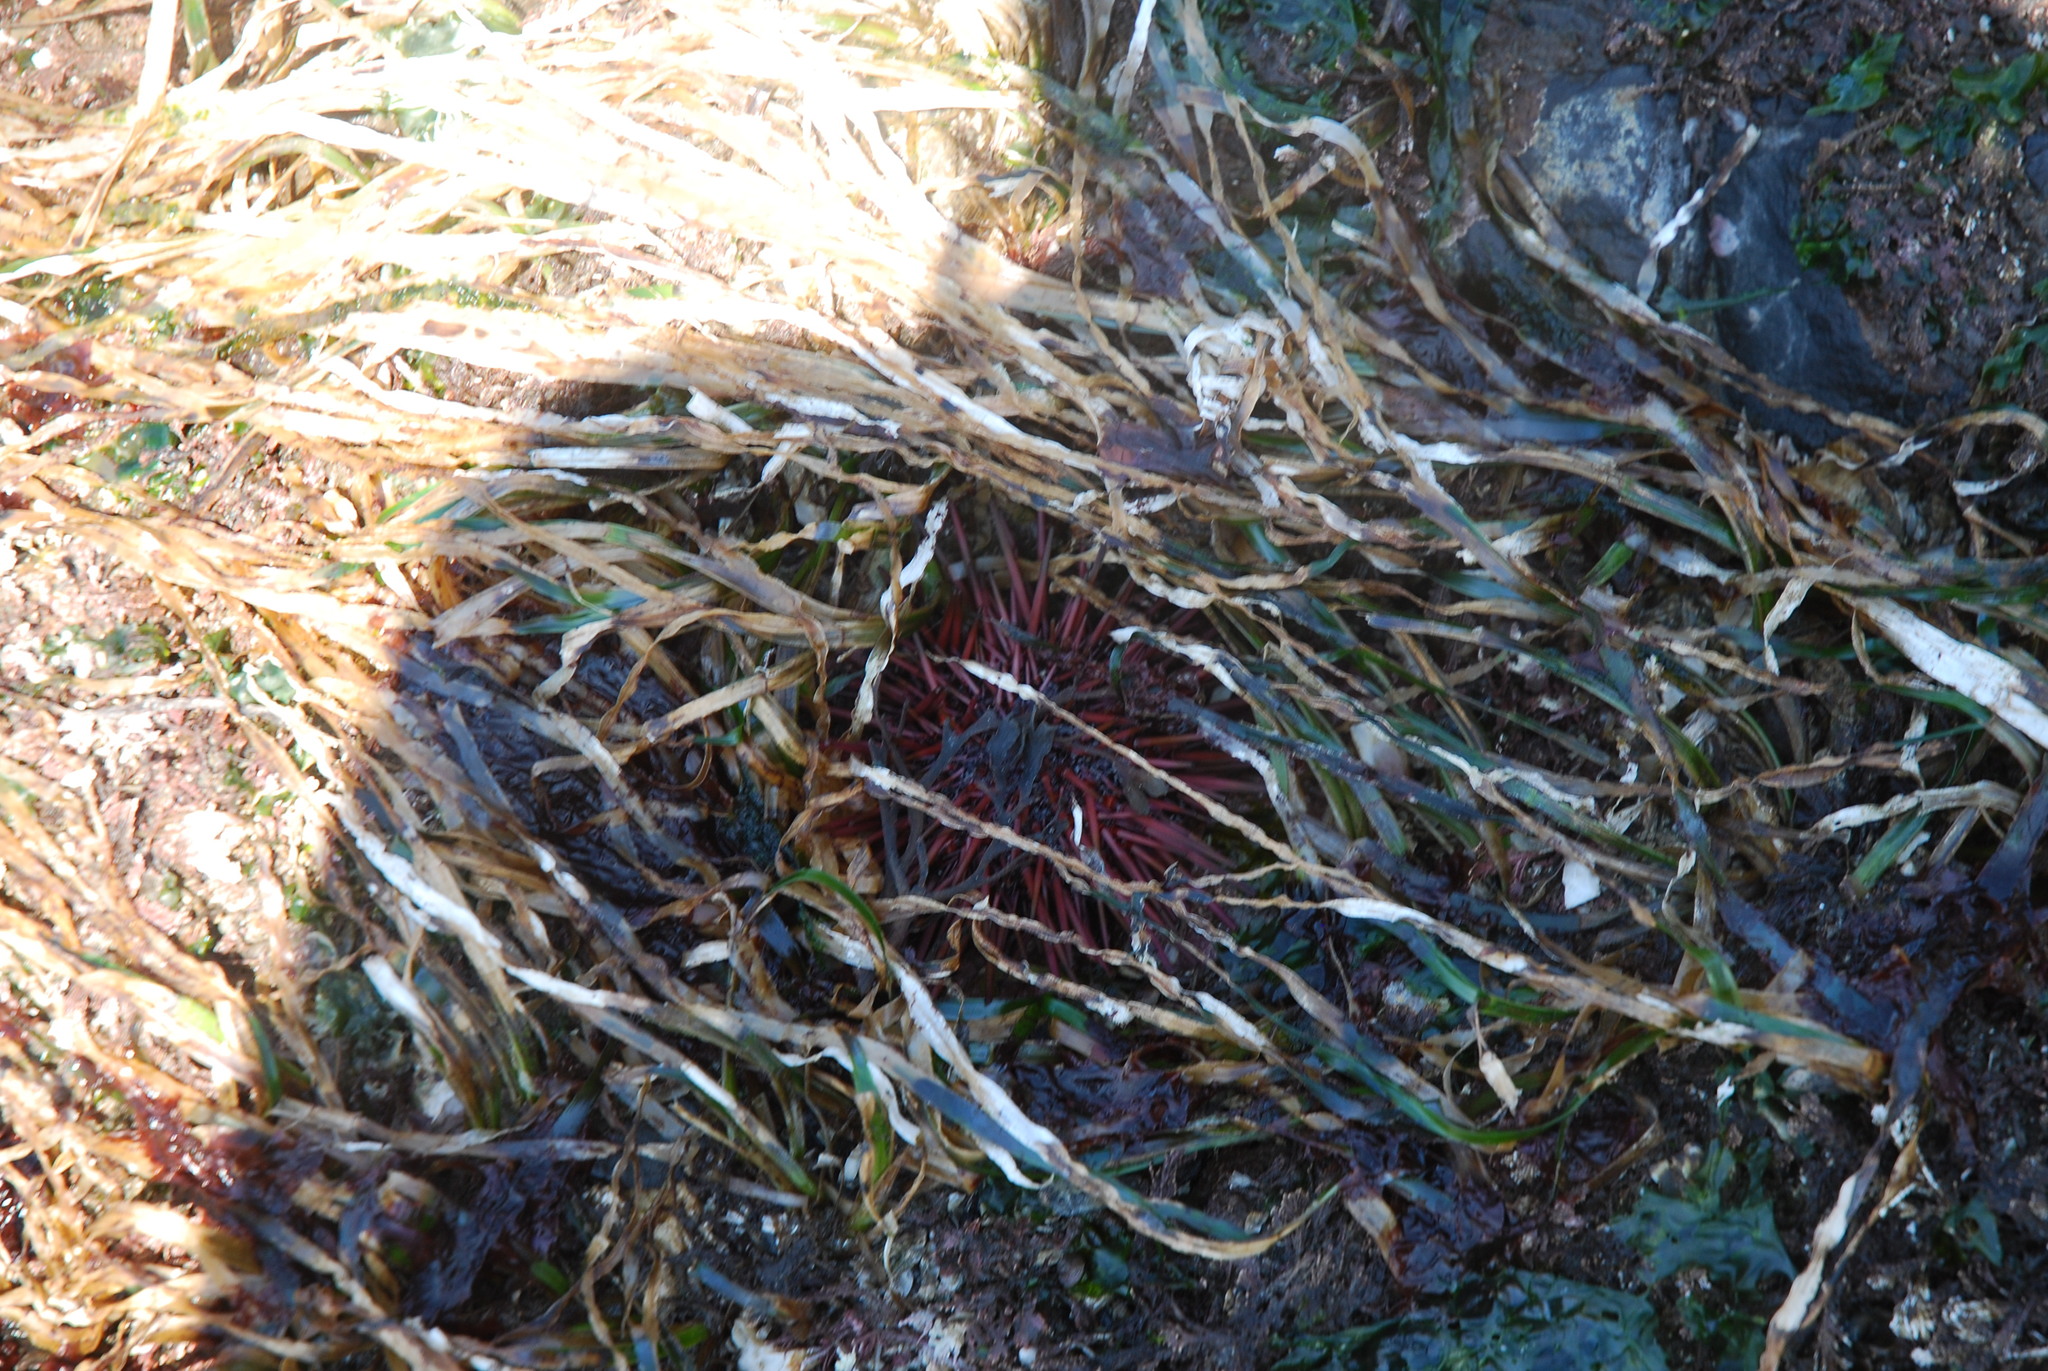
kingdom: Animalia
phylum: Echinodermata
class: Echinoidea
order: Camarodonta
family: Strongylocentrotidae
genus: Mesocentrotus
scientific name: Mesocentrotus franciscanus
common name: Red sea urchin
